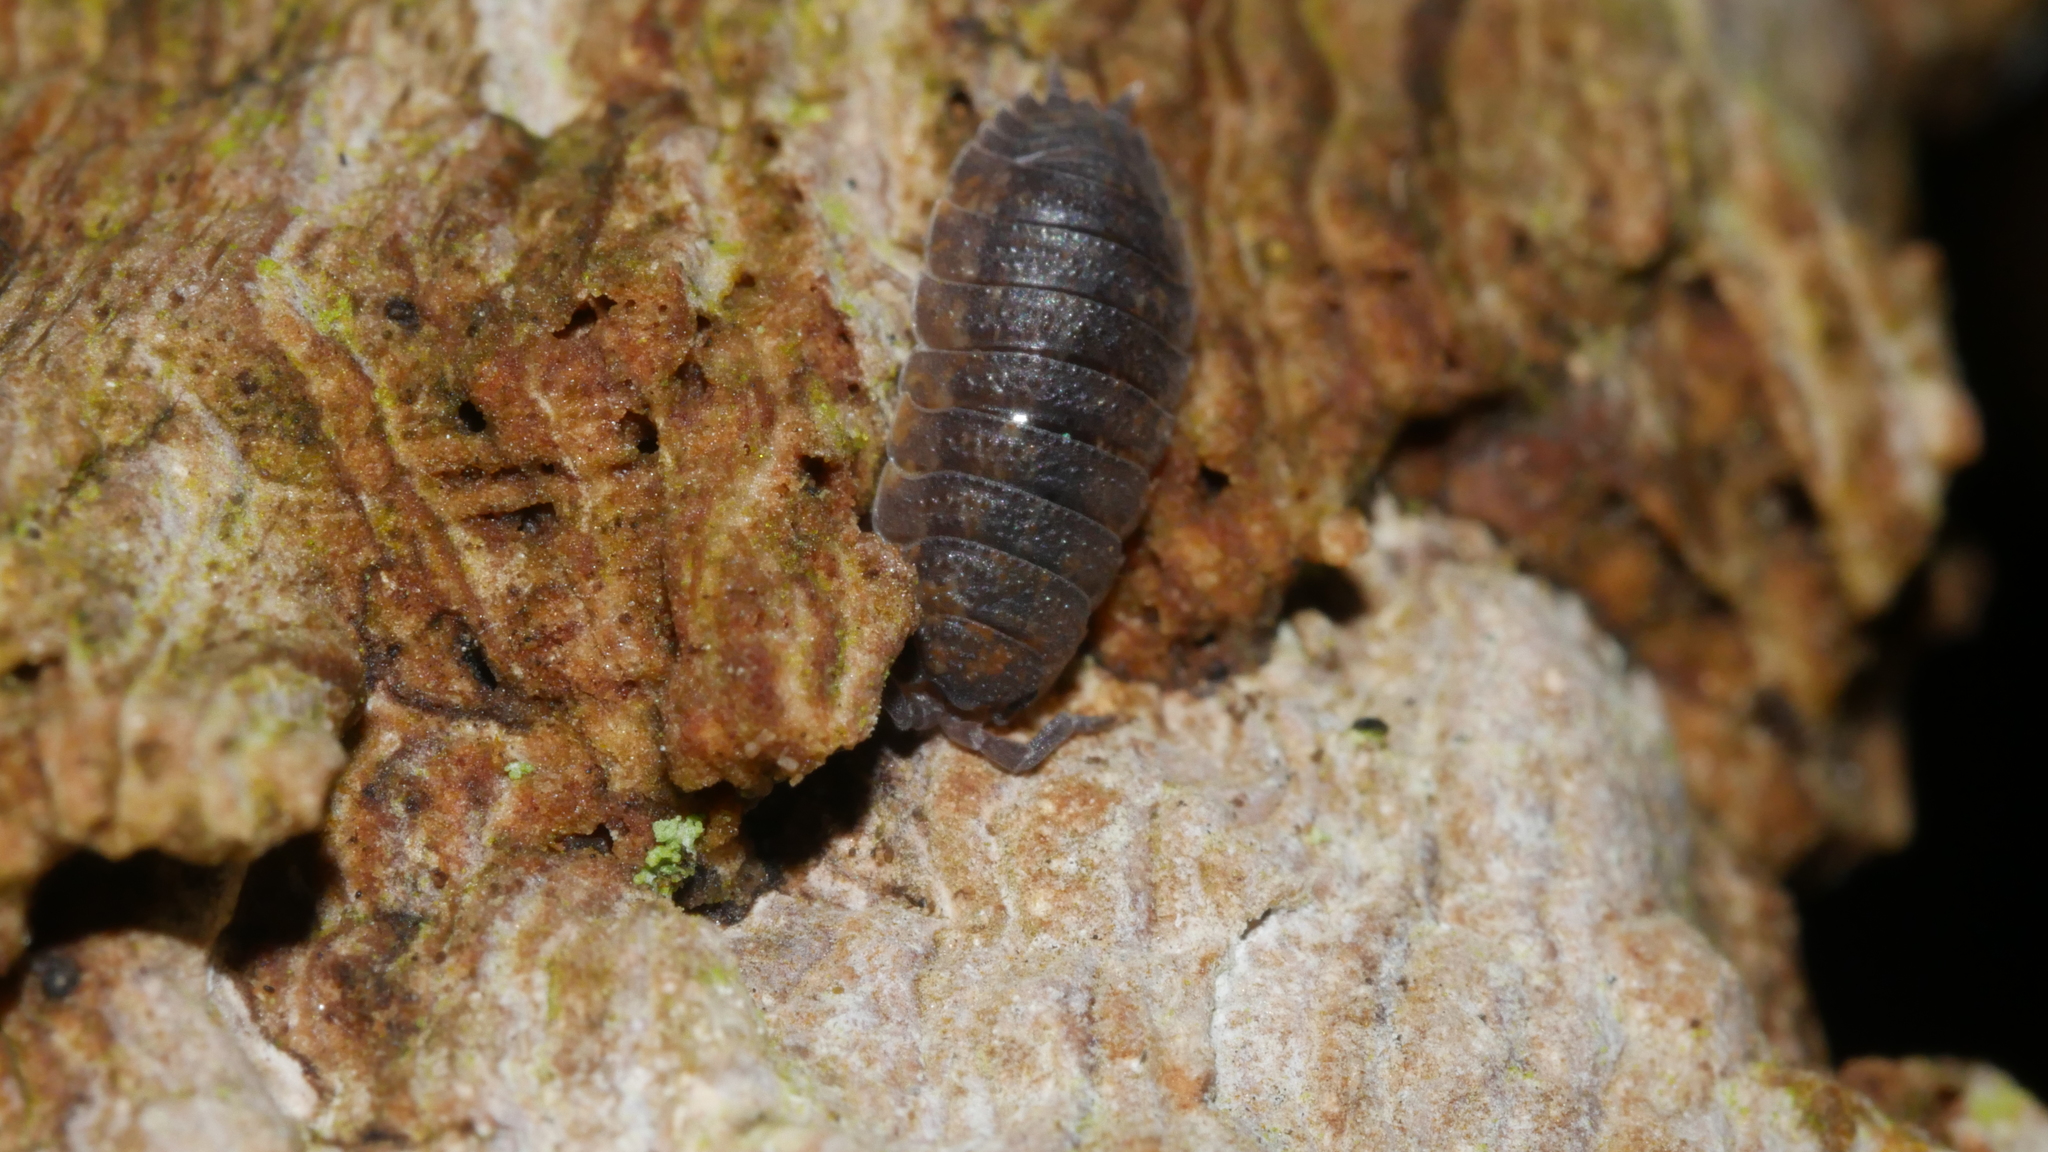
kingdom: Animalia
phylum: Arthropoda
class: Malacostraca
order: Isopoda
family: Porcellionidae
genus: Porcellio
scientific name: Porcellio scaber
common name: Common rough woodlouse
